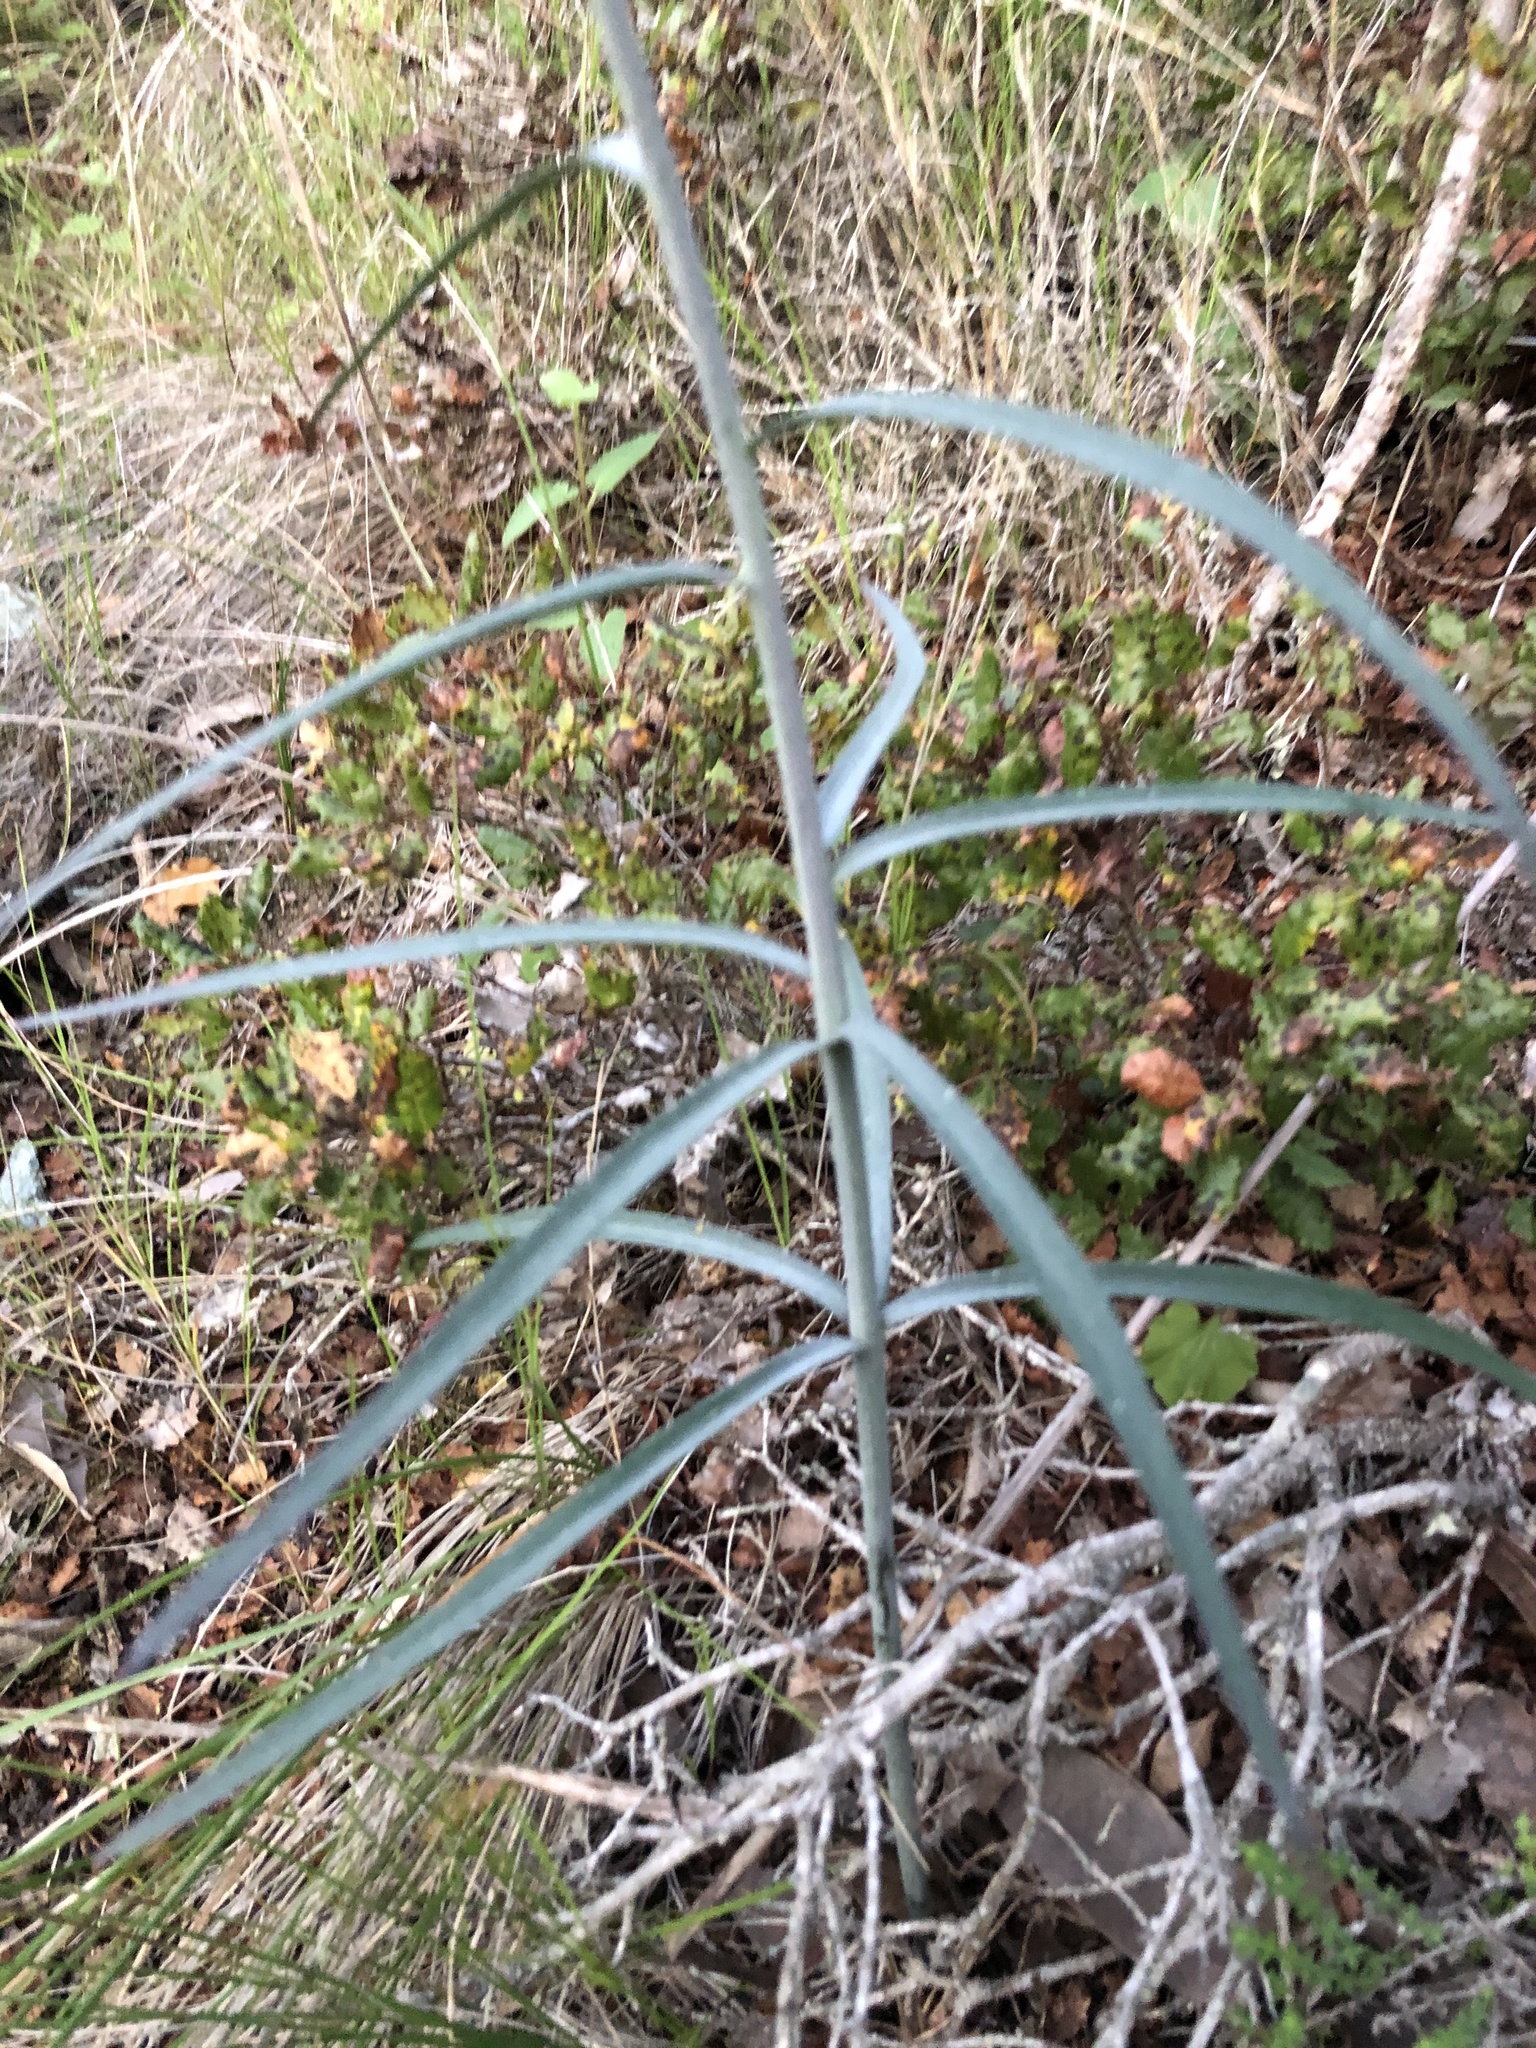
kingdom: Plantae
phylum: Tracheophyta
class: Liliopsida
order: Liliales
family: Liliaceae
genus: Fritillaria
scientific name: Fritillaria ojaiensis
